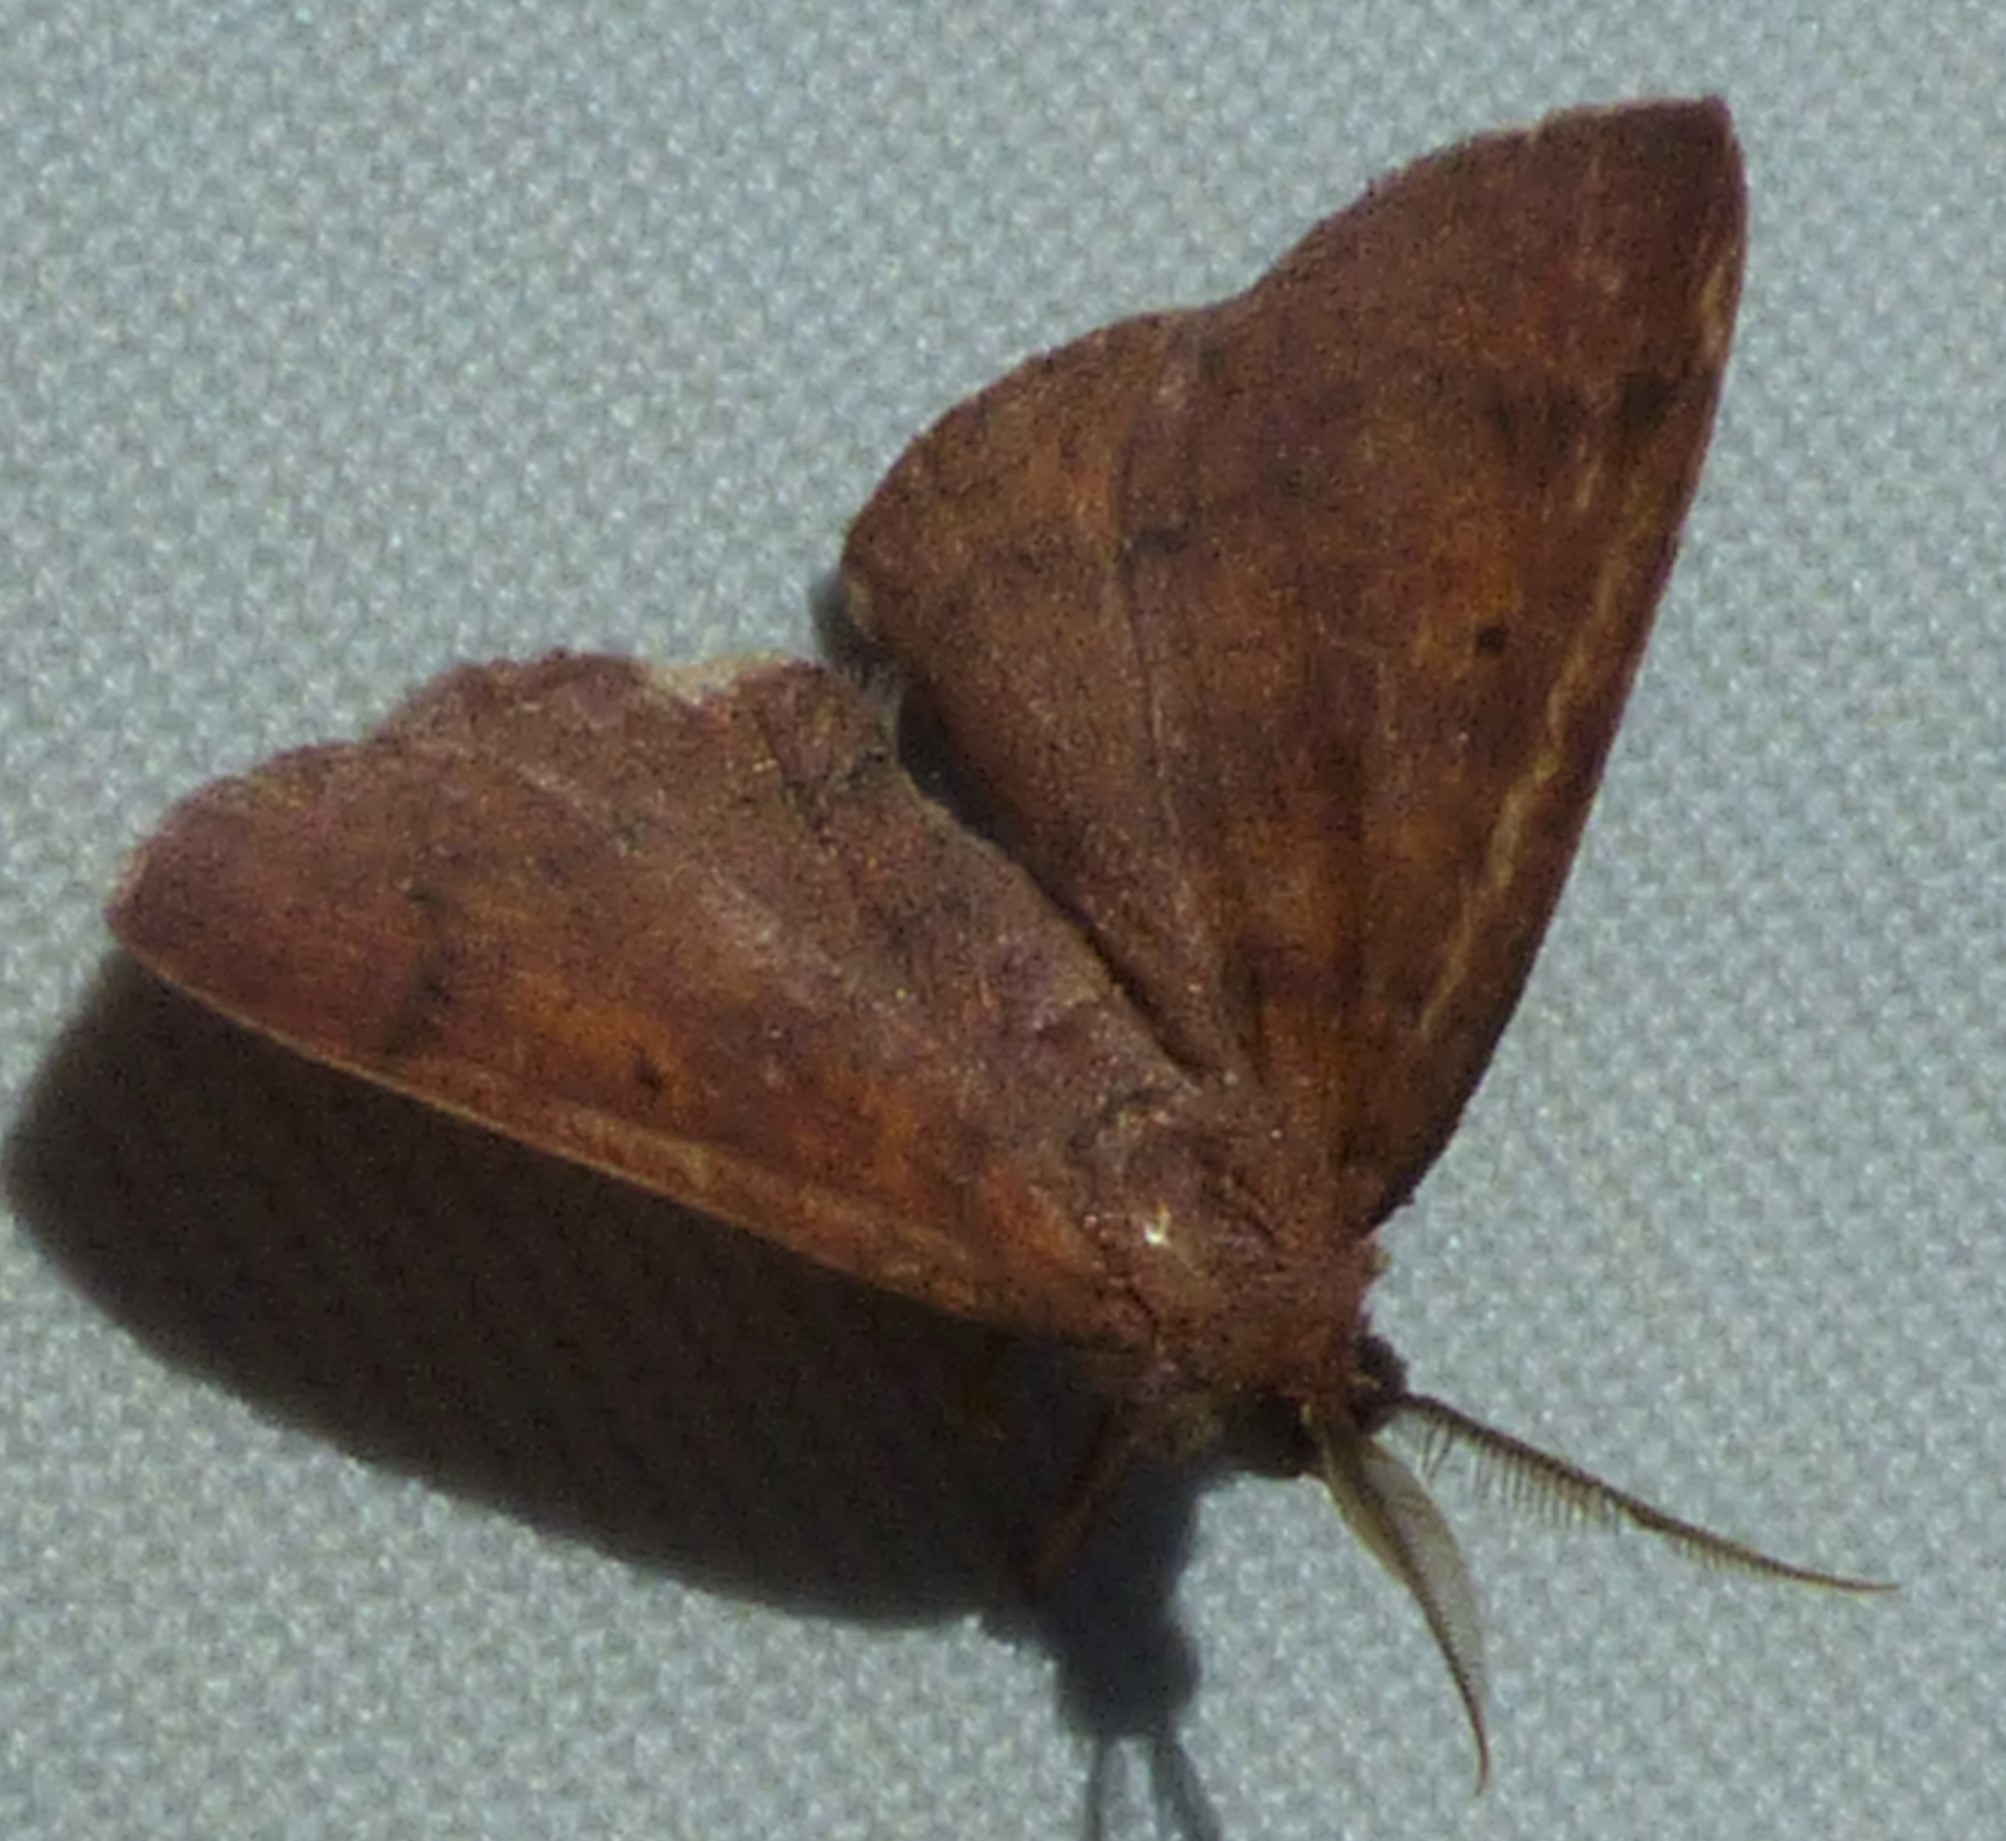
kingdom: Animalia
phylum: Arthropoda
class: Insecta
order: Lepidoptera
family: Geometridae
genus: Ilexia
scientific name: Ilexia intractata
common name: Black-dotted ruddy moth
